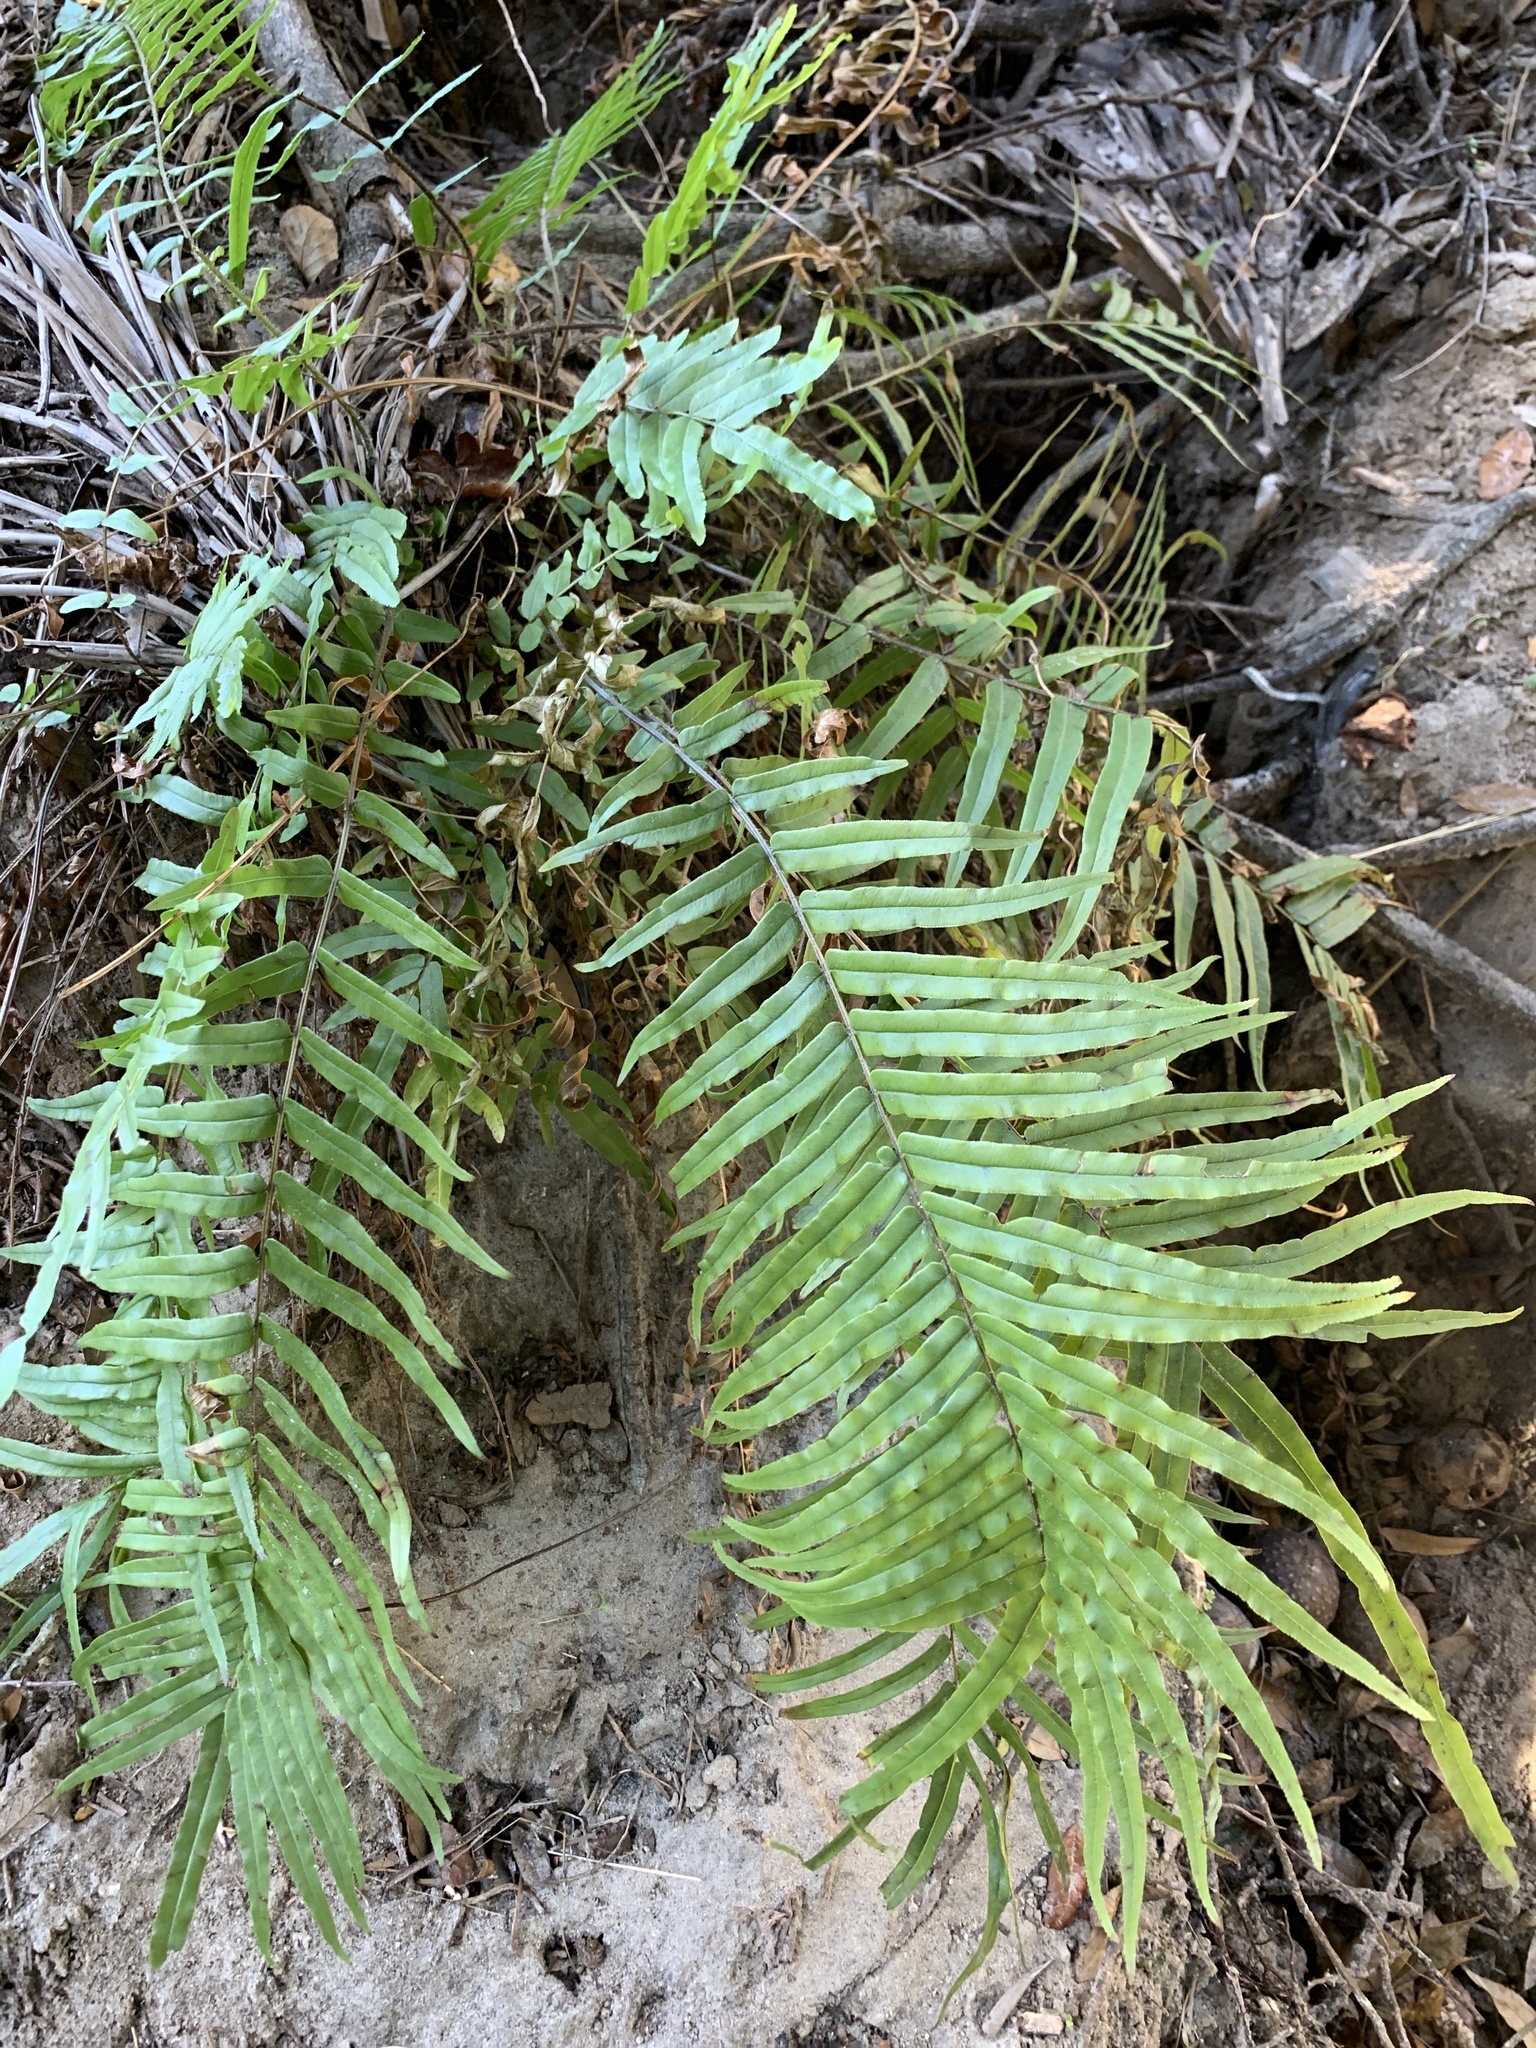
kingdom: Plantae
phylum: Tracheophyta
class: Polypodiopsida
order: Polypodiales
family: Pteridaceae
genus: Pteris
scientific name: Pteris vittata
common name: Ladder brake
